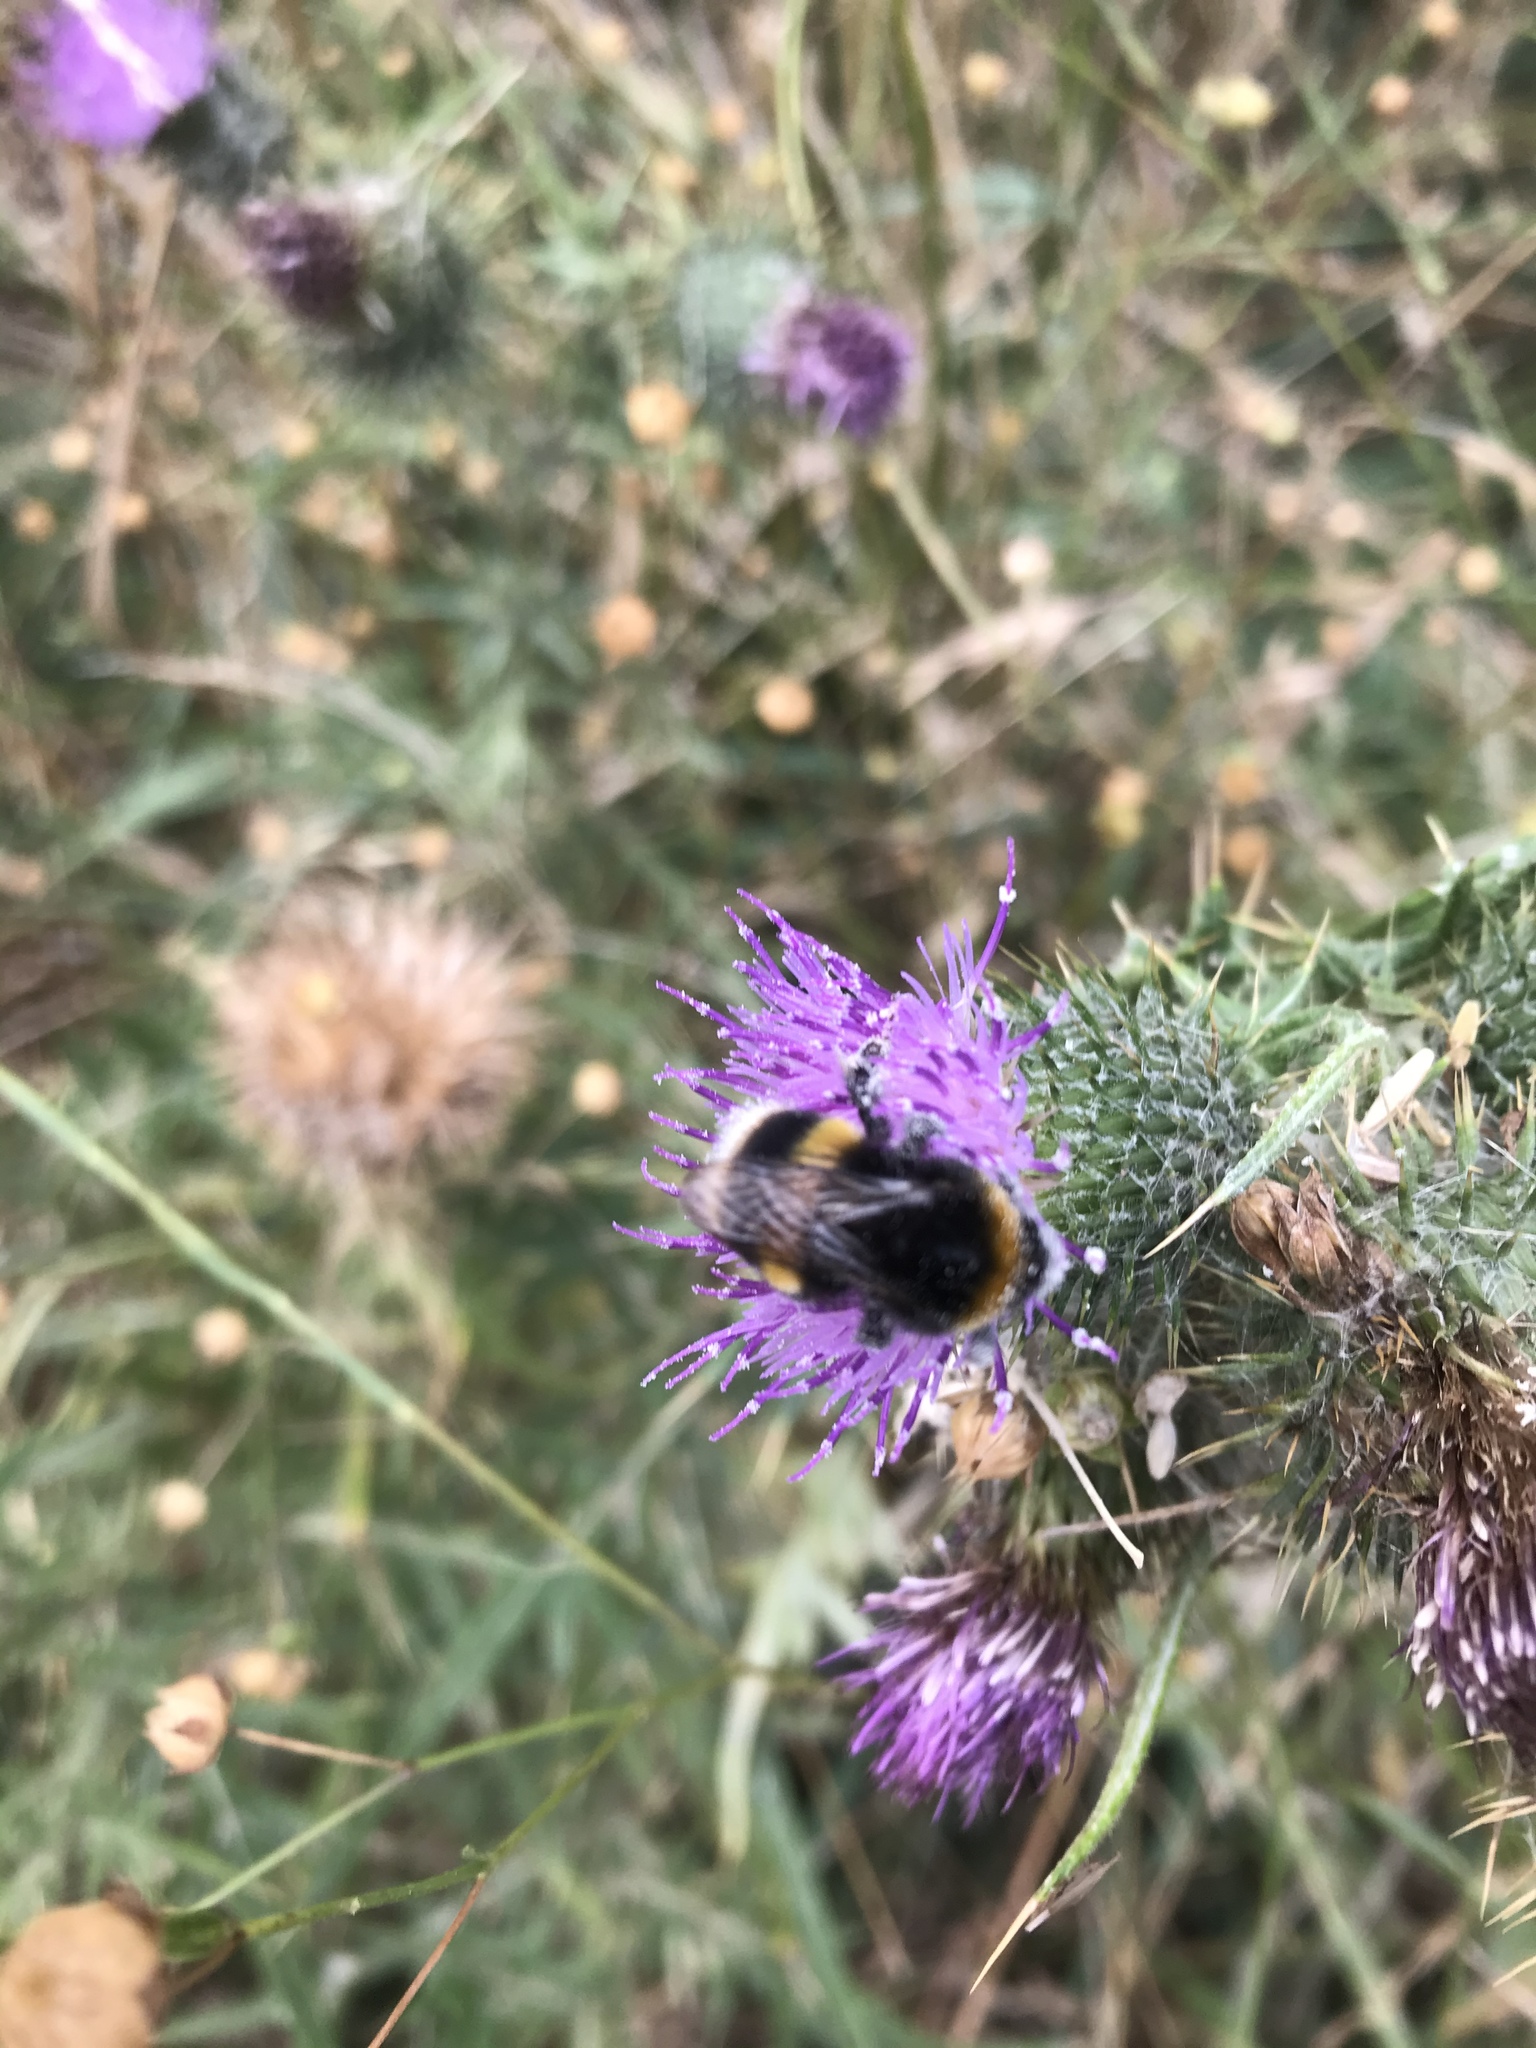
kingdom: Animalia
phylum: Arthropoda
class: Insecta
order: Hymenoptera
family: Apidae
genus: Bombus
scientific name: Bombus terrestris
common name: Buff-tailed bumblebee
